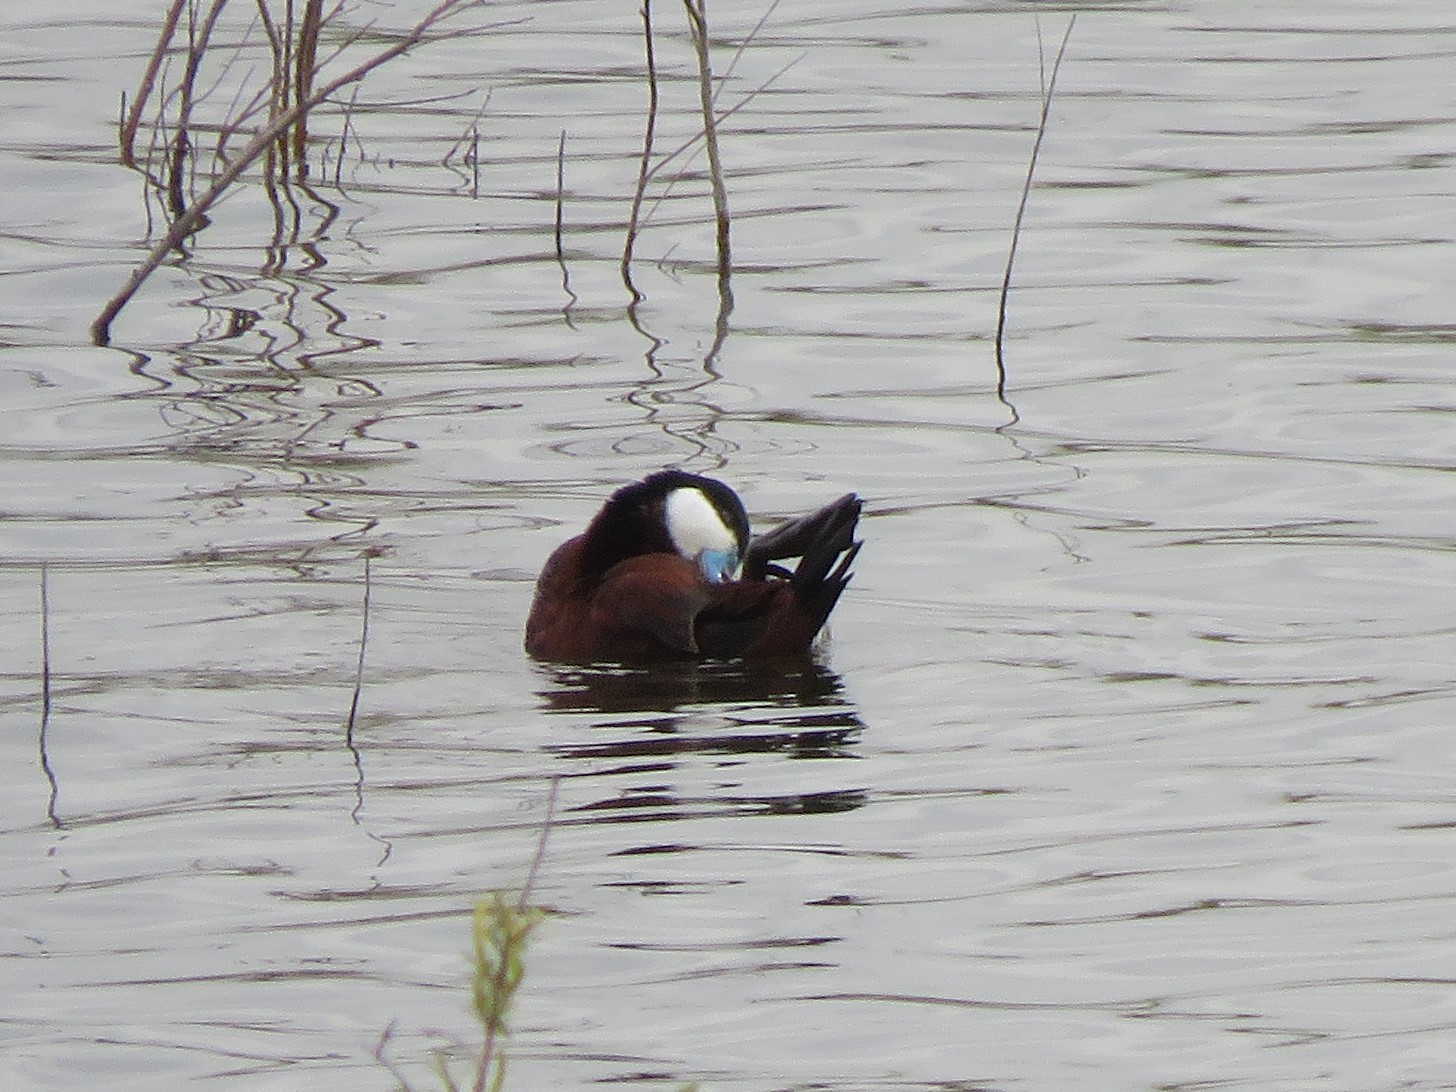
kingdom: Animalia
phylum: Chordata
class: Aves
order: Anseriformes
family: Anatidae
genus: Oxyura
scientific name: Oxyura jamaicensis
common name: Ruddy duck
